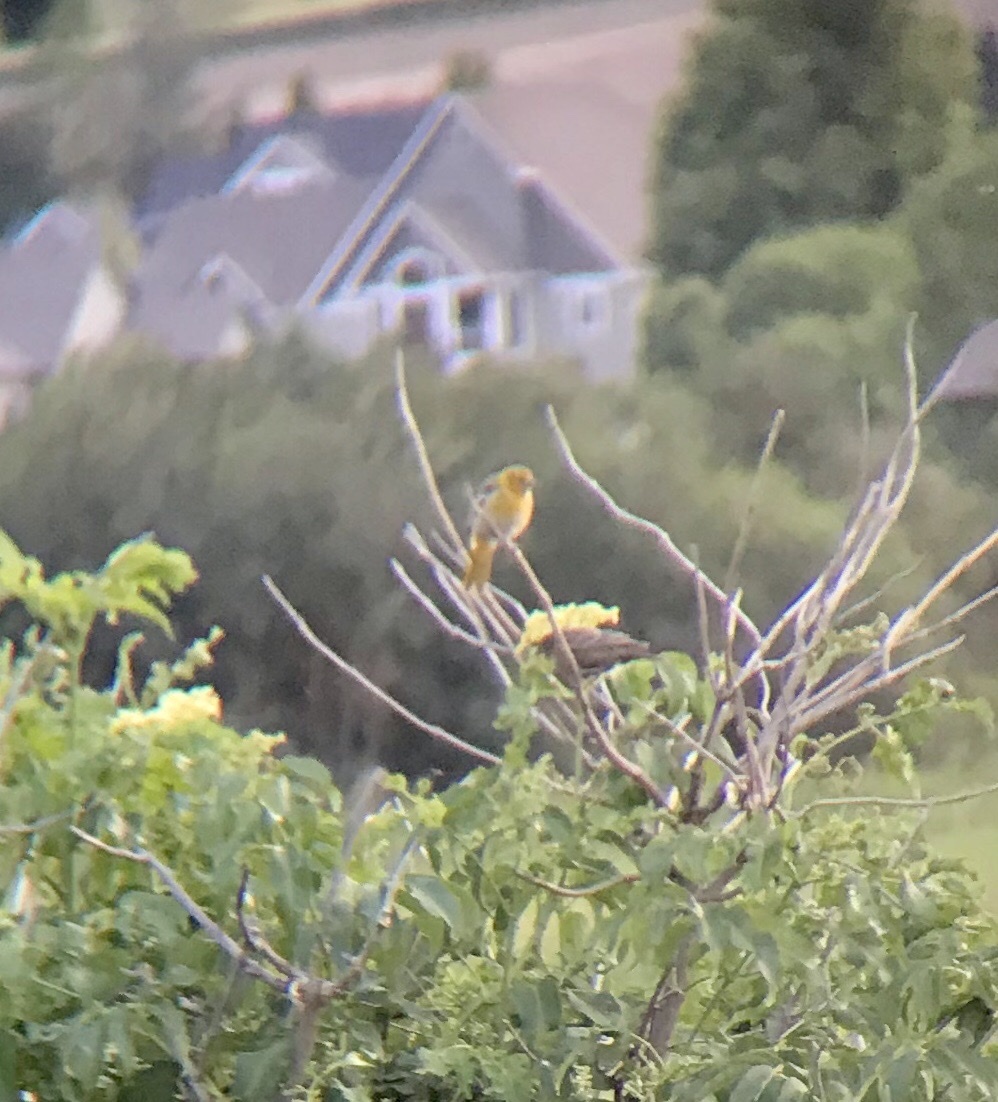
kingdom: Animalia
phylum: Chordata
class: Aves
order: Passeriformes
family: Icteridae
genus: Icterus
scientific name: Icterus bullockii
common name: Bullock's oriole
